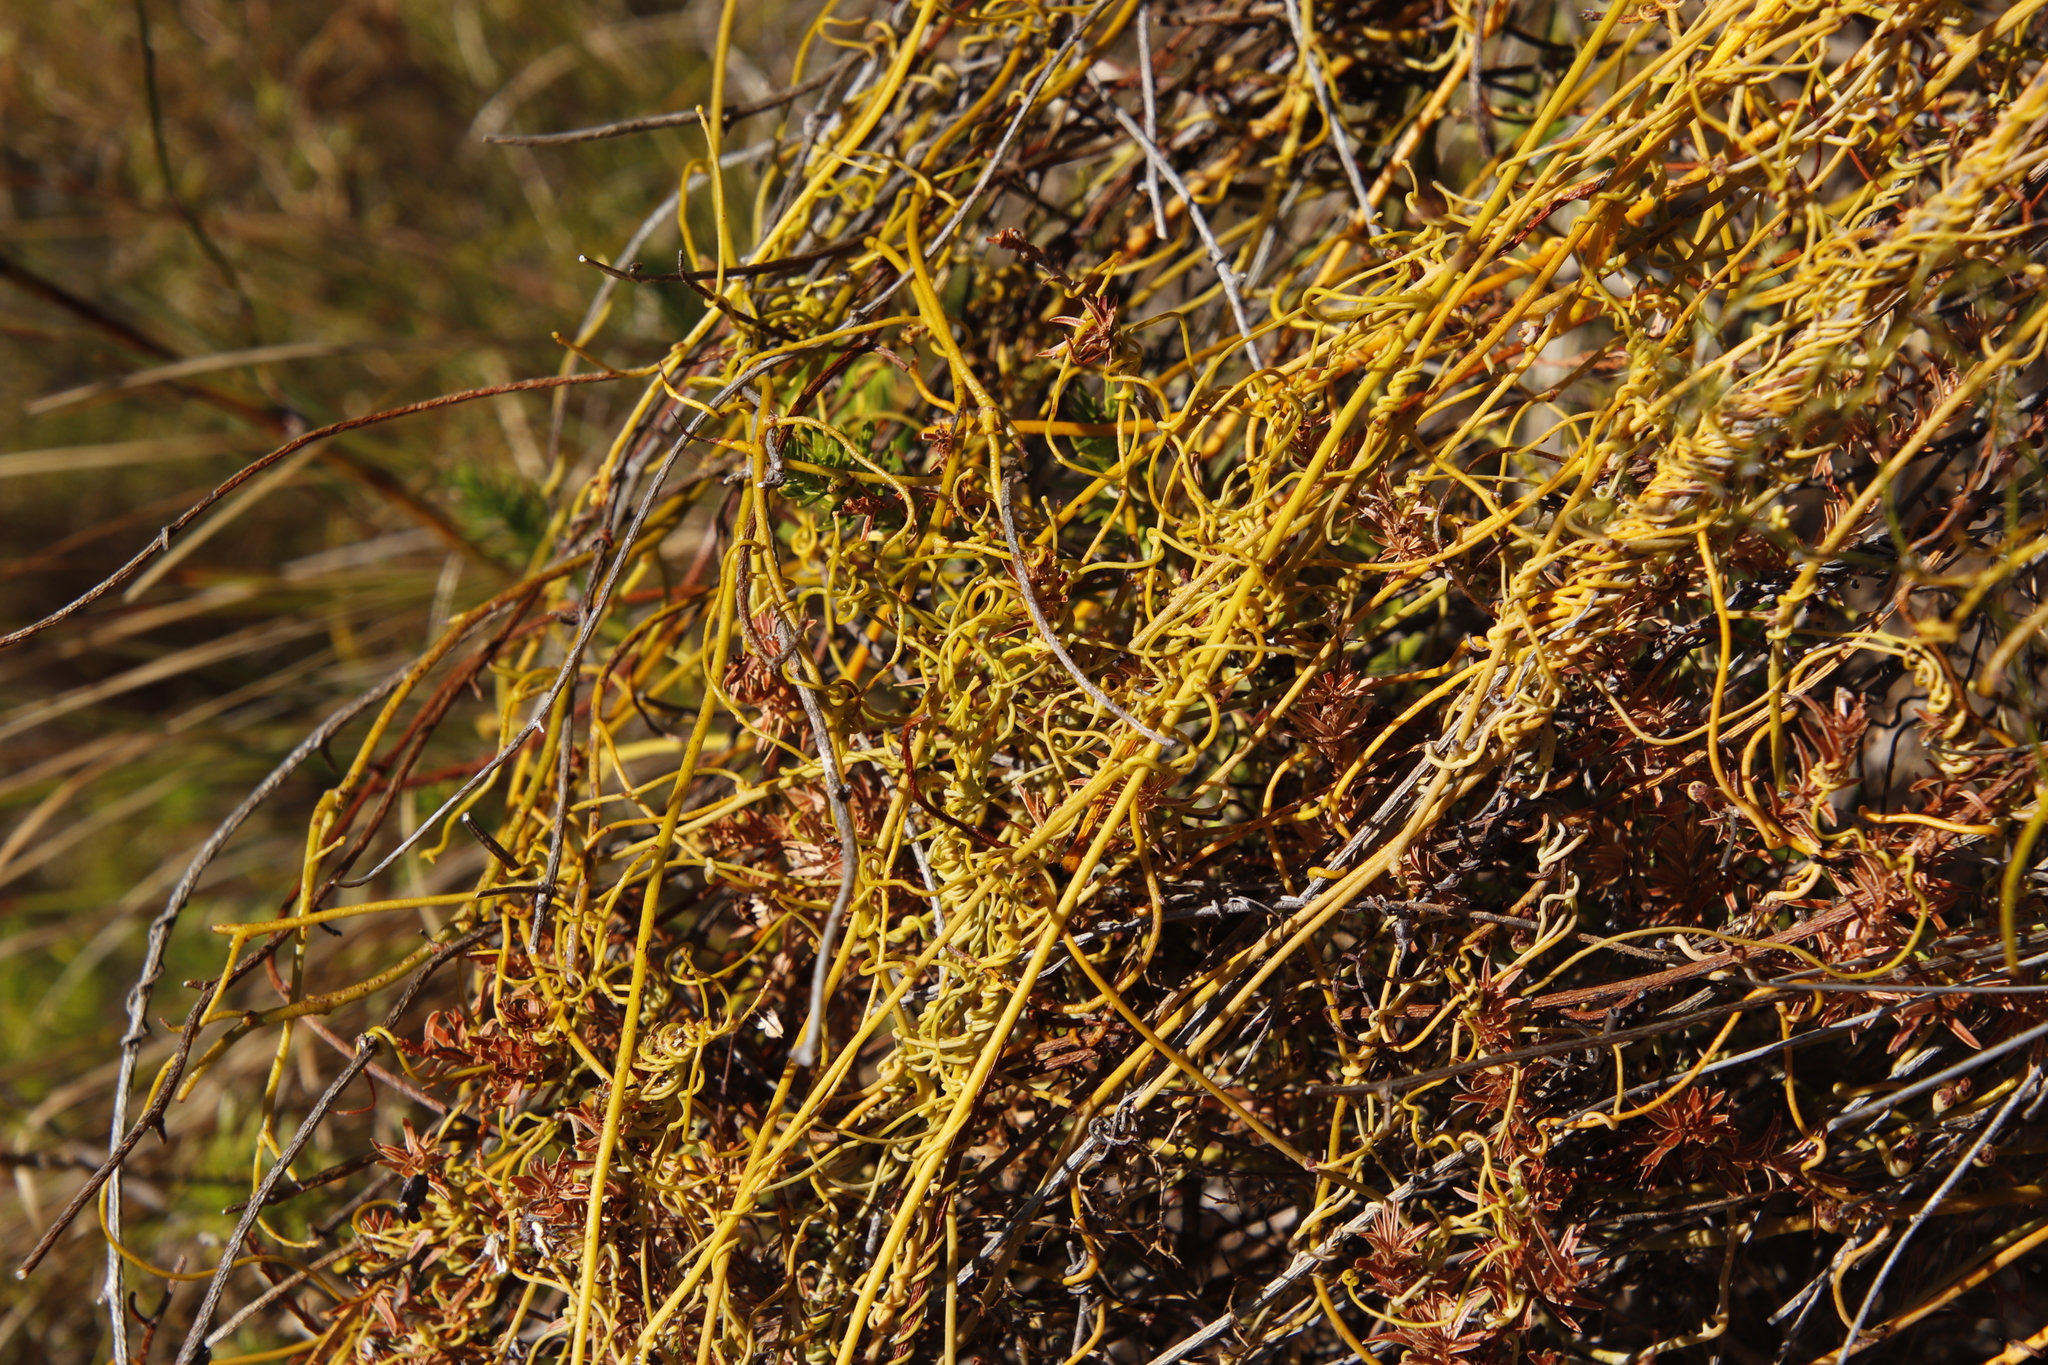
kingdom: Plantae
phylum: Tracheophyta
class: Magnoliopsida
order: Laurales
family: Lauraceae
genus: Cassytha
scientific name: Cassytha ciliolata
